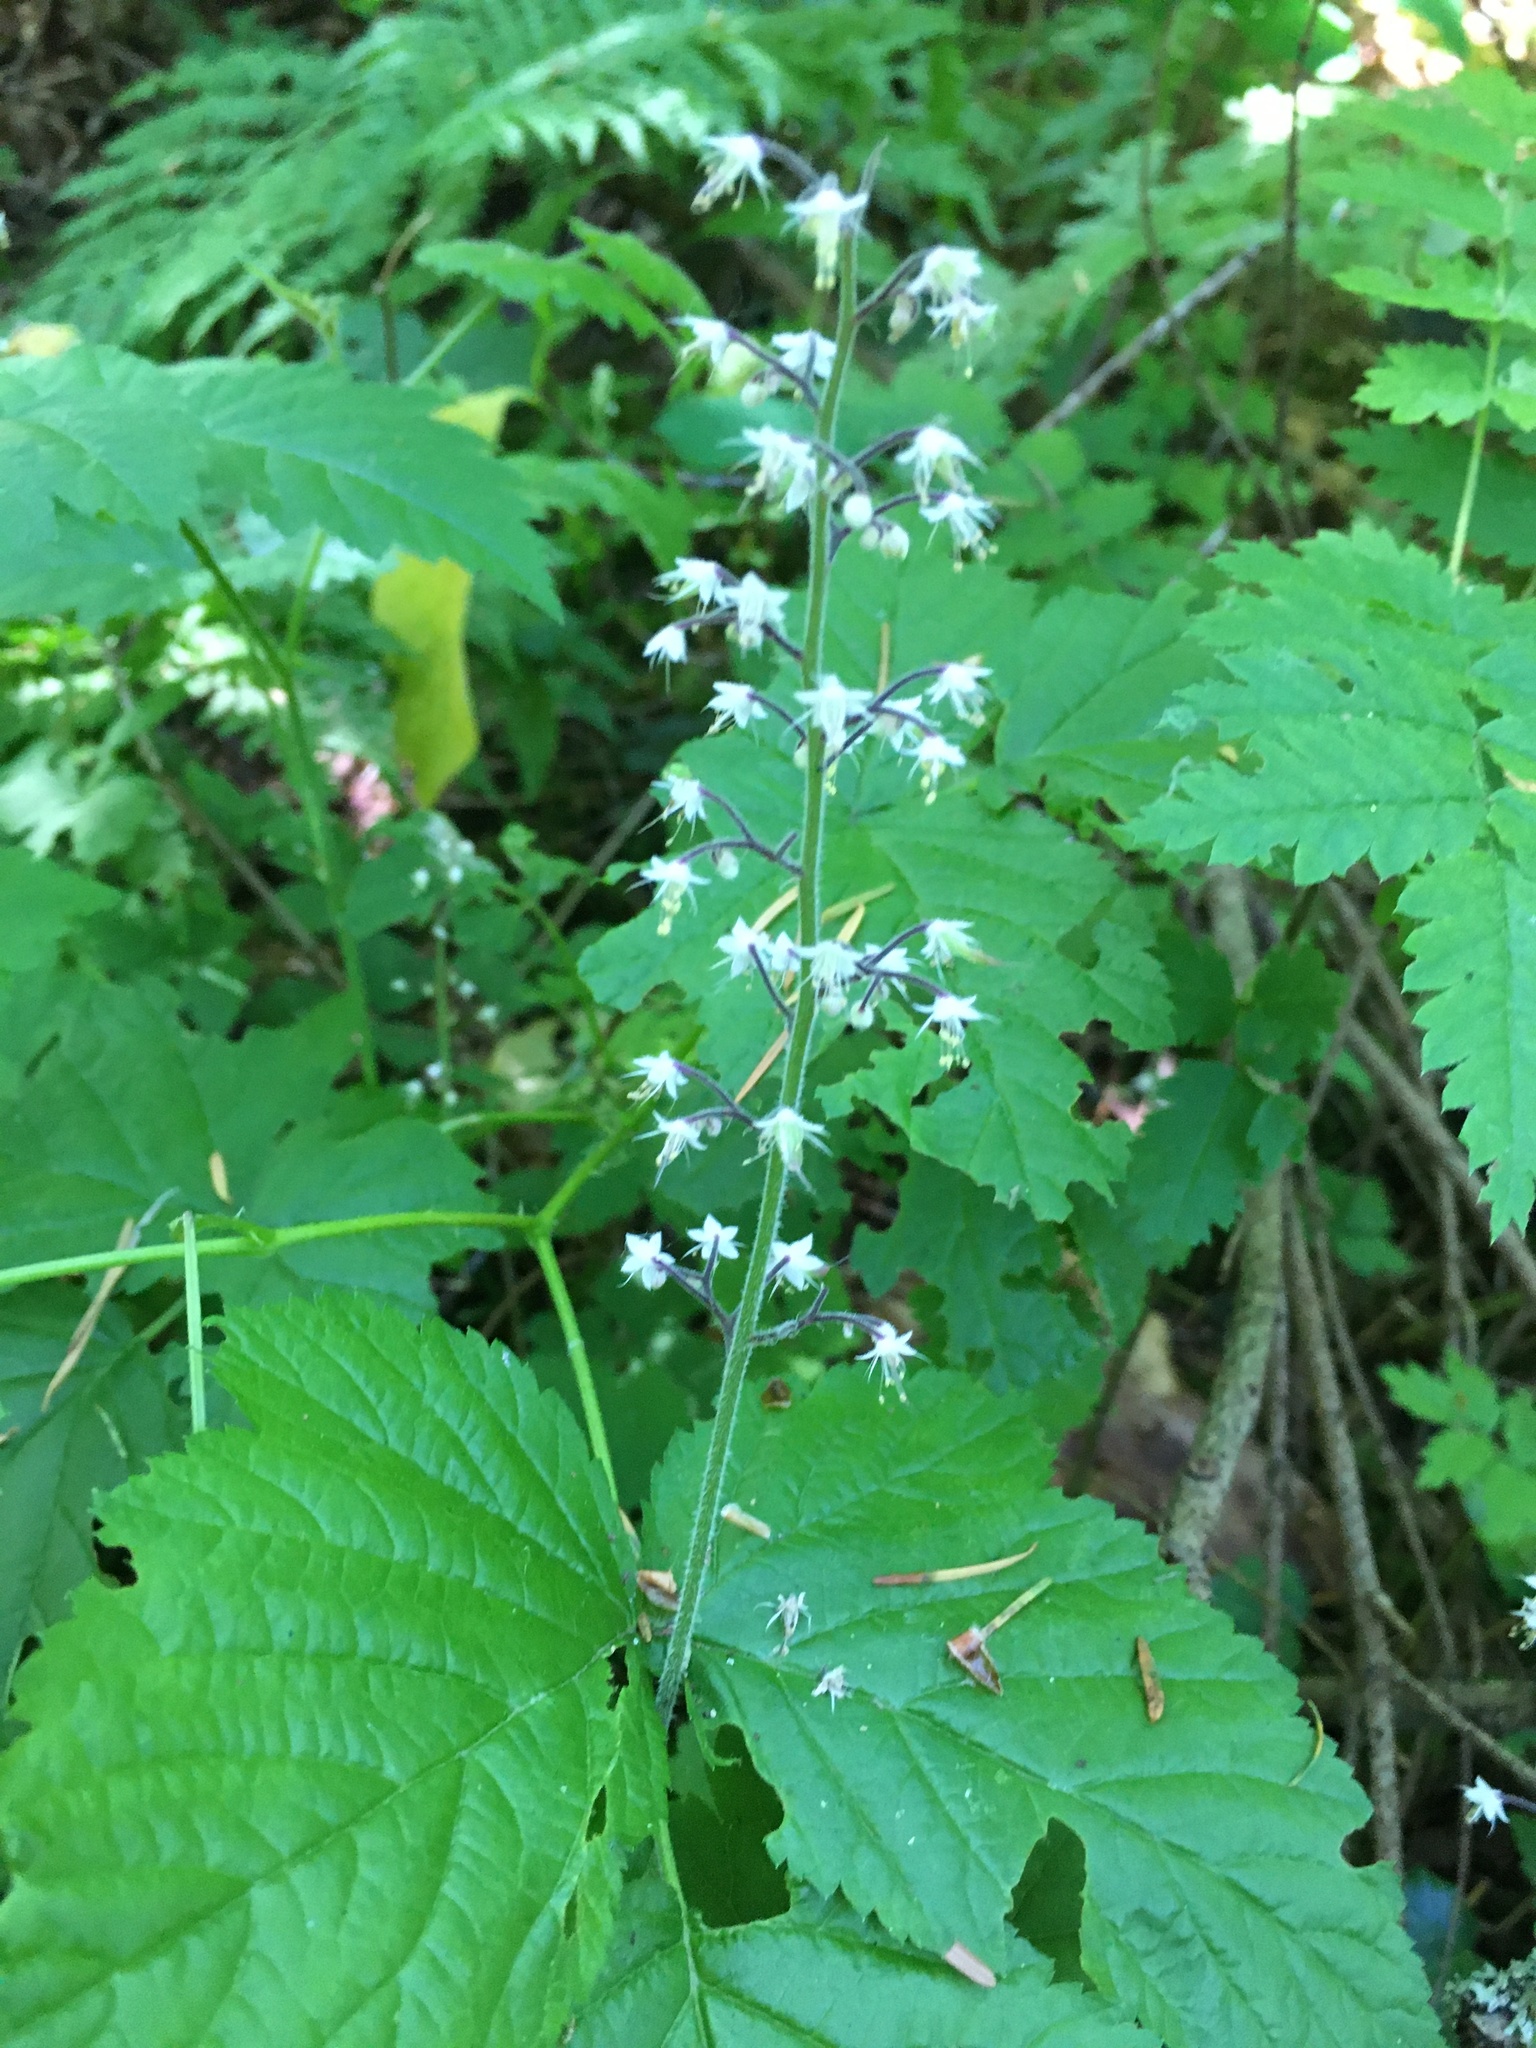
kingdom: Plantae
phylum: Tracheophyta
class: Magnoliopsida
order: Saxifragales
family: Saxifragaceae
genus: Tiarella
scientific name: Tiarella trifoliata
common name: Sugar-scoop
